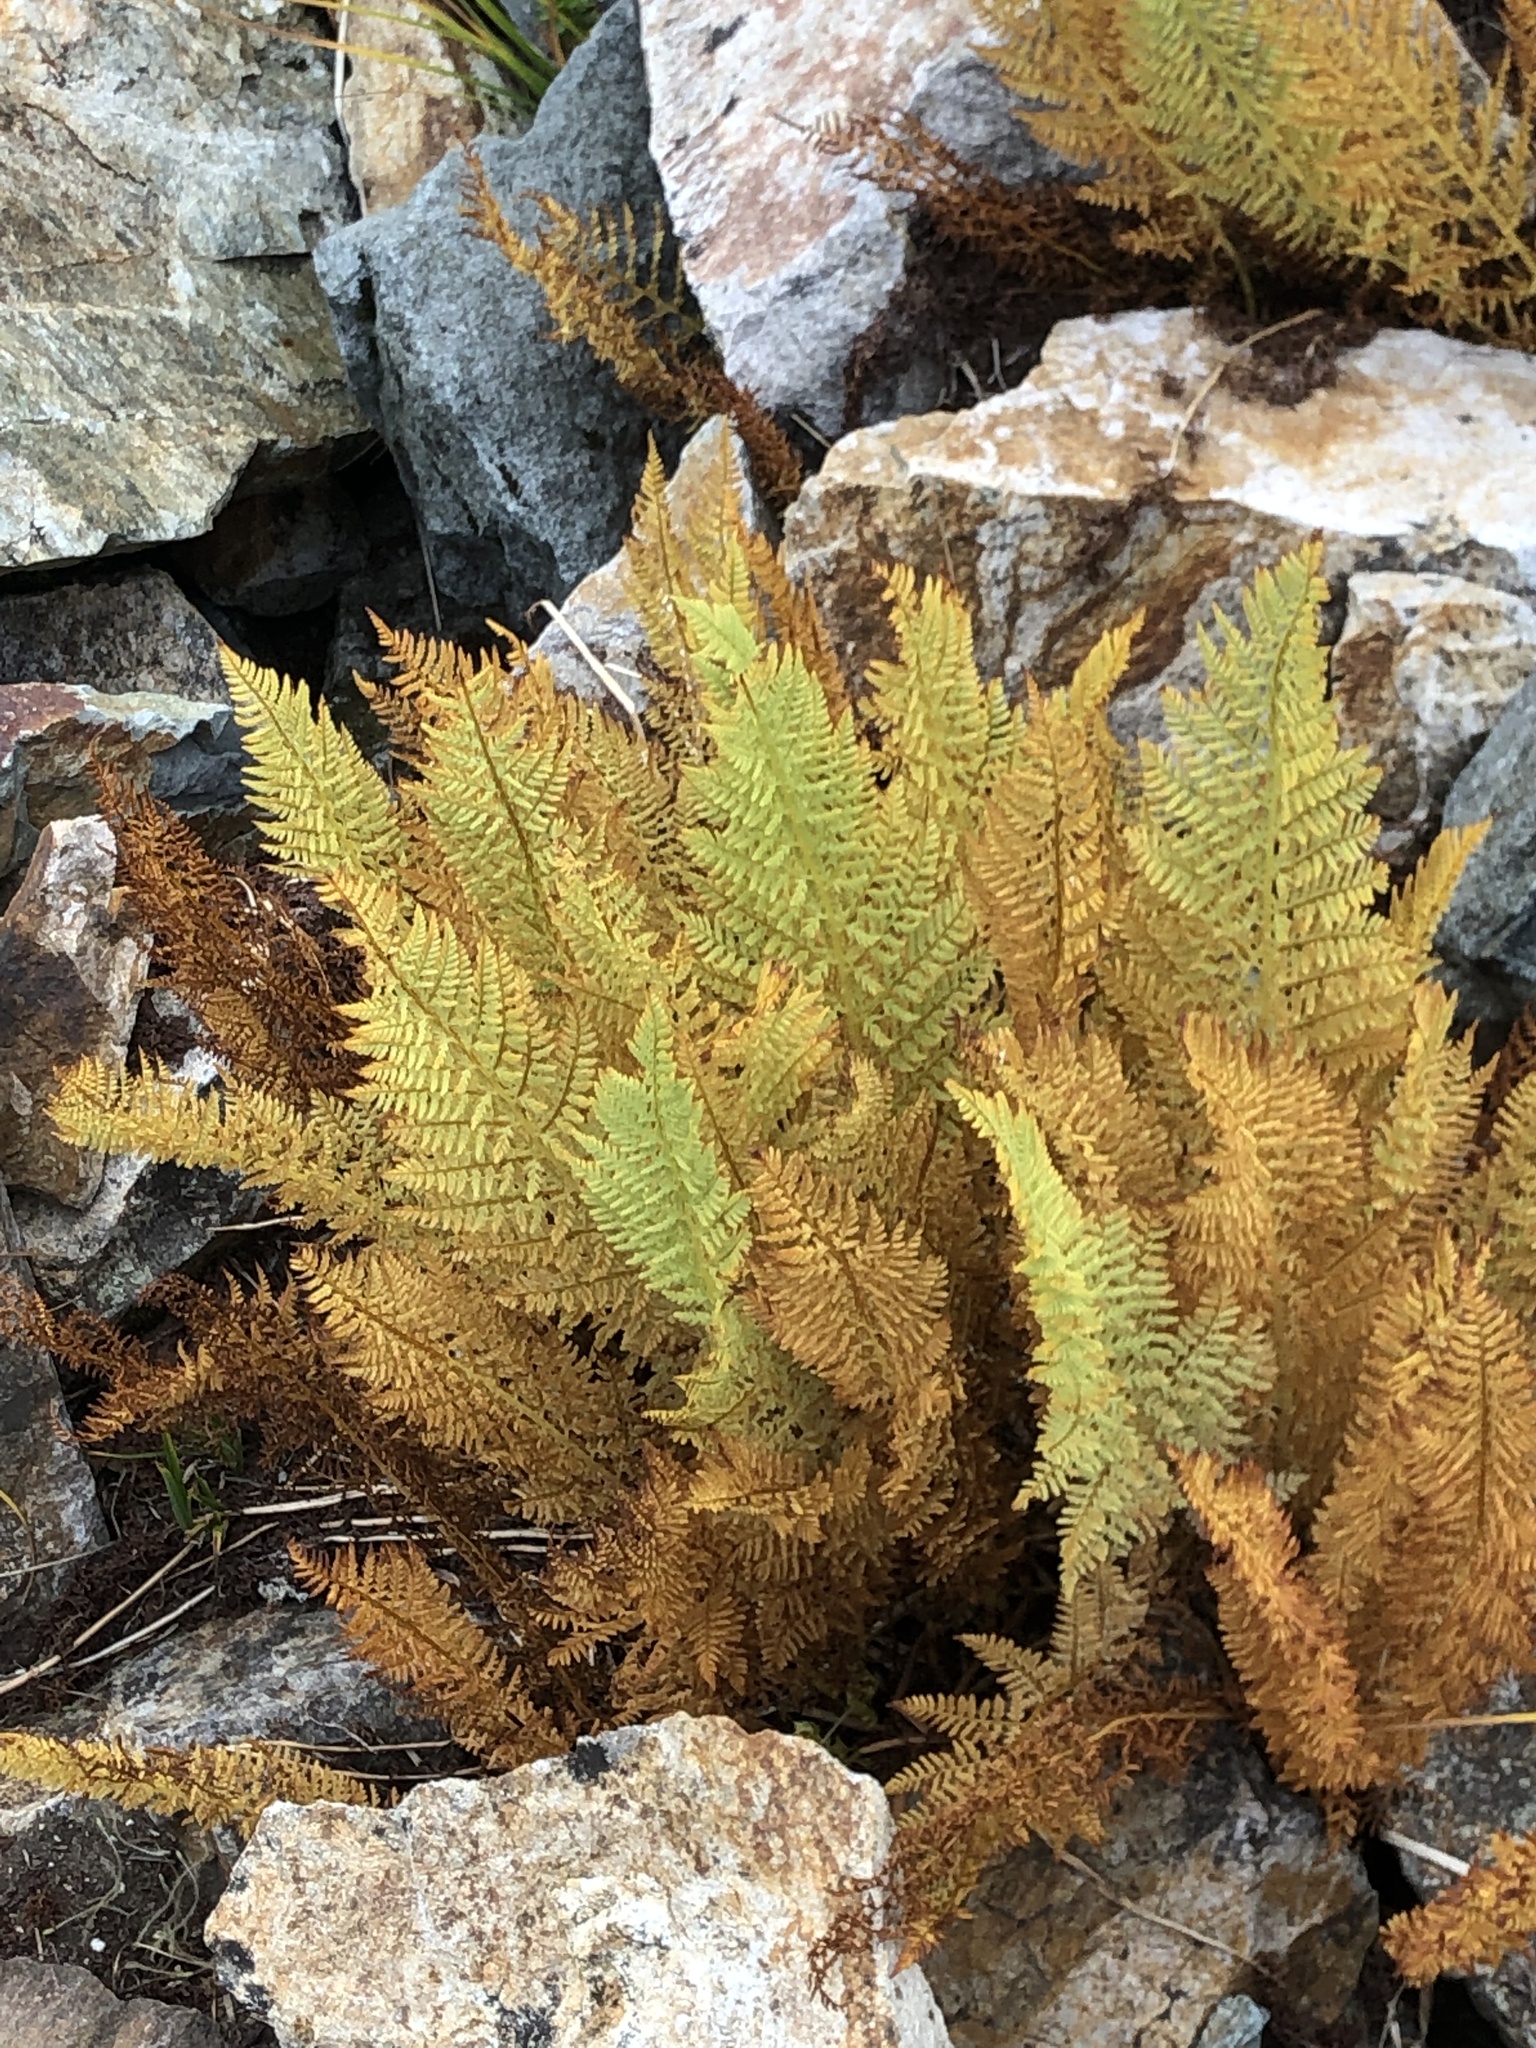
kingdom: Plantae
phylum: Tracheophyta
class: Polypodiopsida
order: Polypodiales
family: Athyriaceae
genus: Athyrium
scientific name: Athyrium americanum
